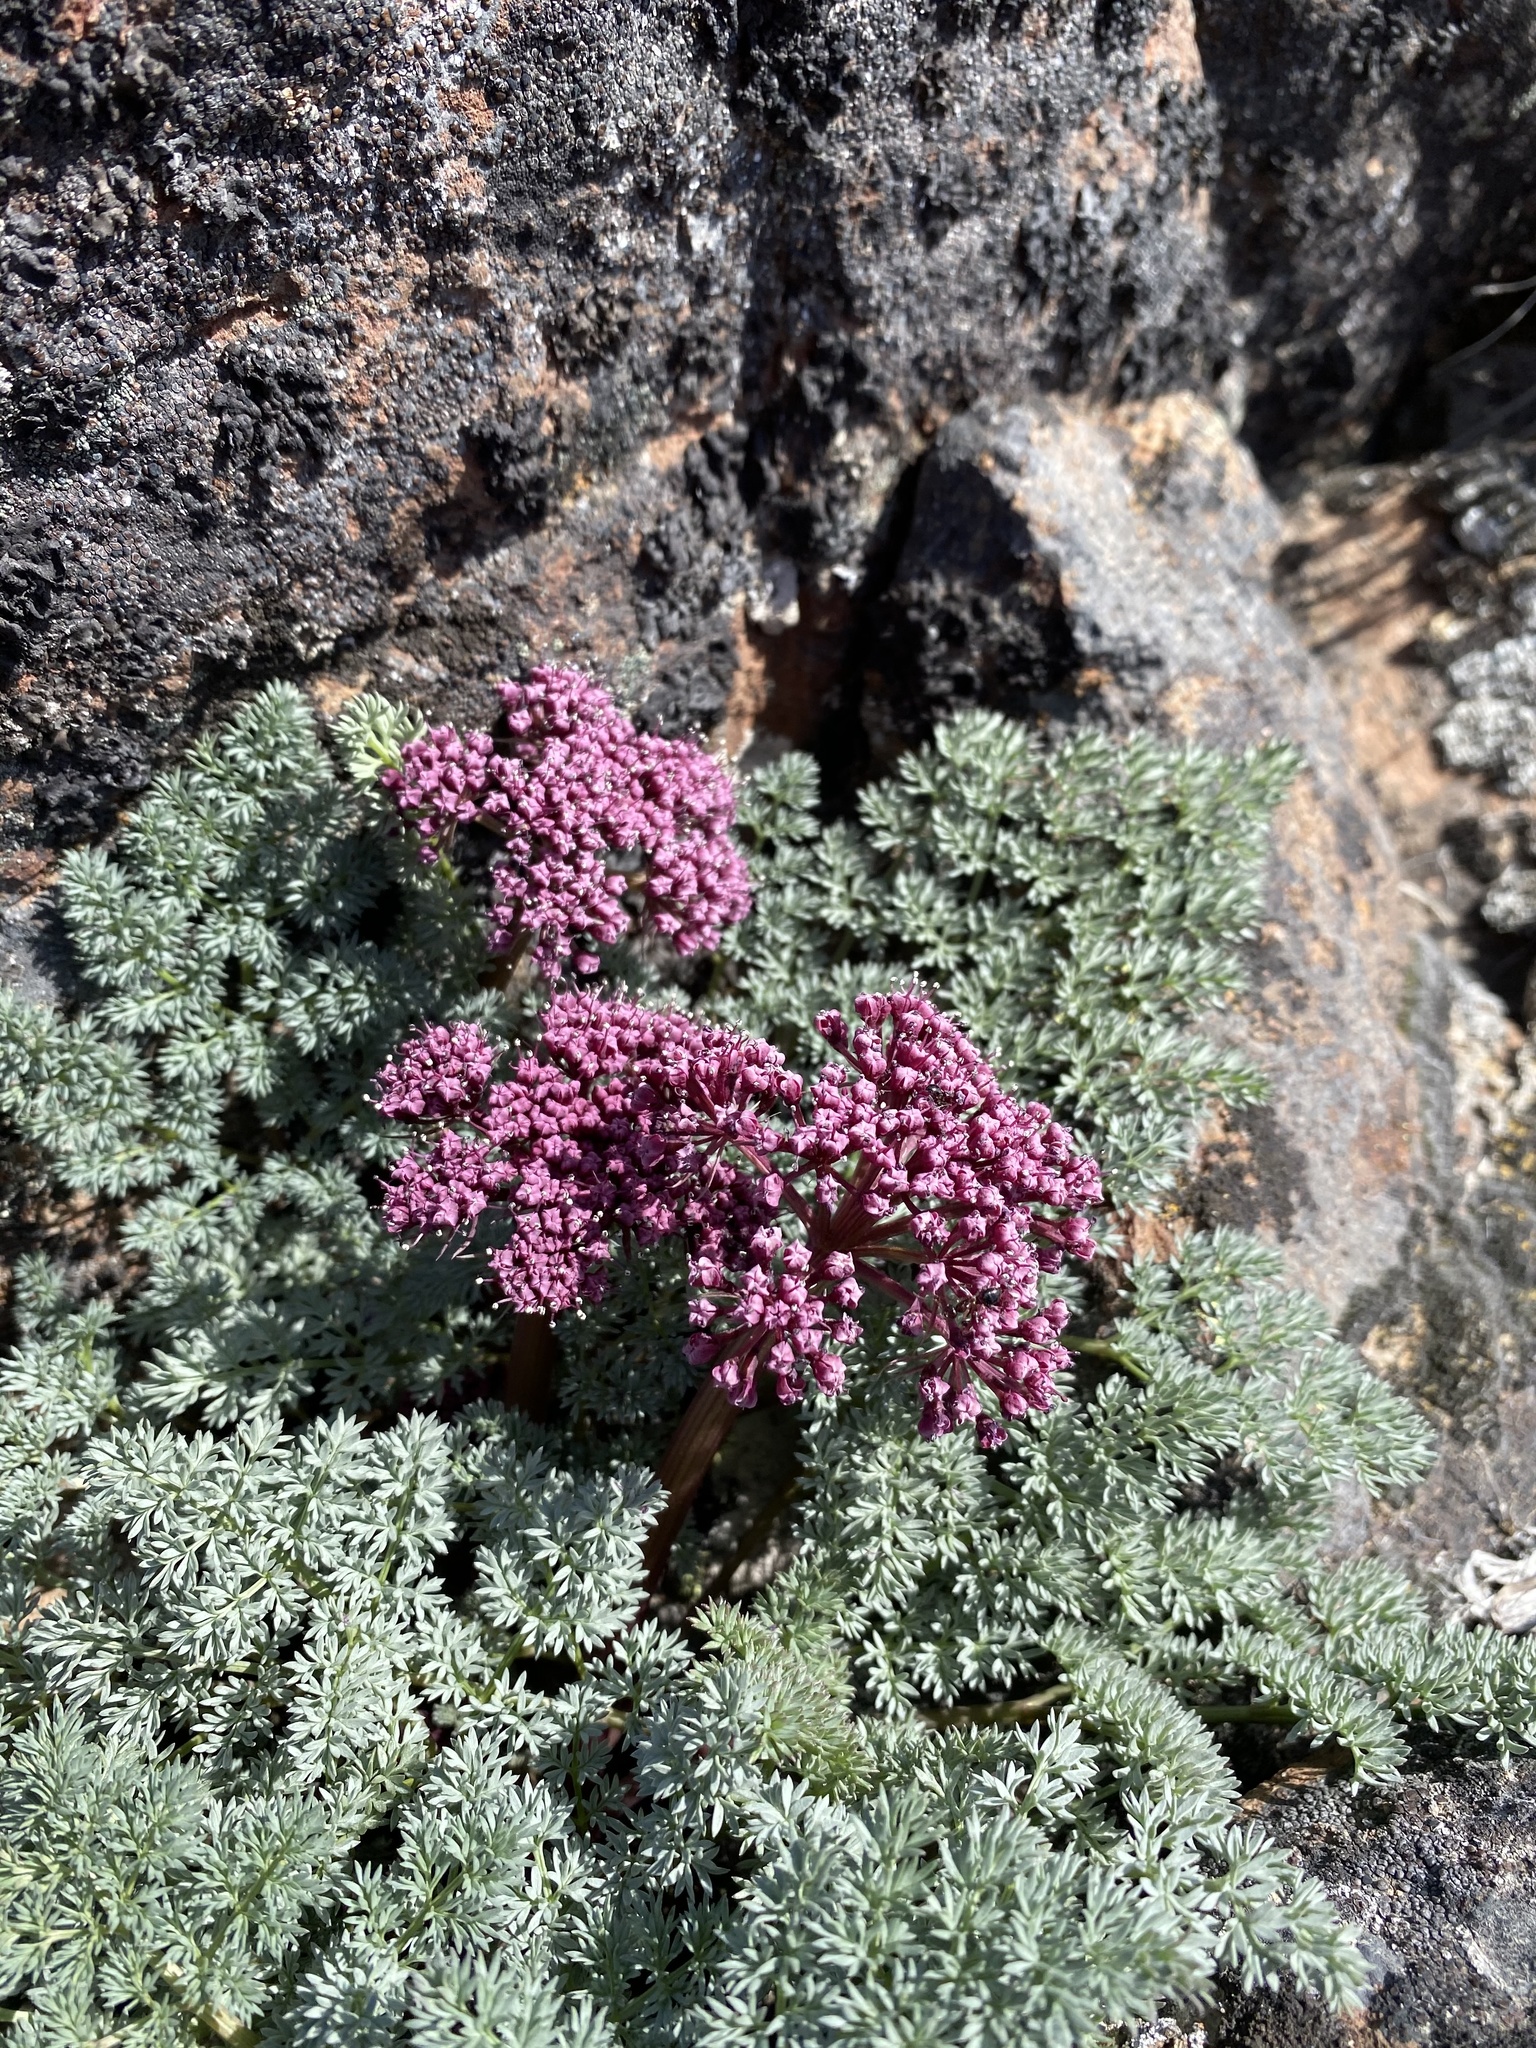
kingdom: Plantae
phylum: Tracheophyta
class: Magnoliopsida
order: Apiales
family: Apiaceae
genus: Lomatium
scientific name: Lomatium minus
